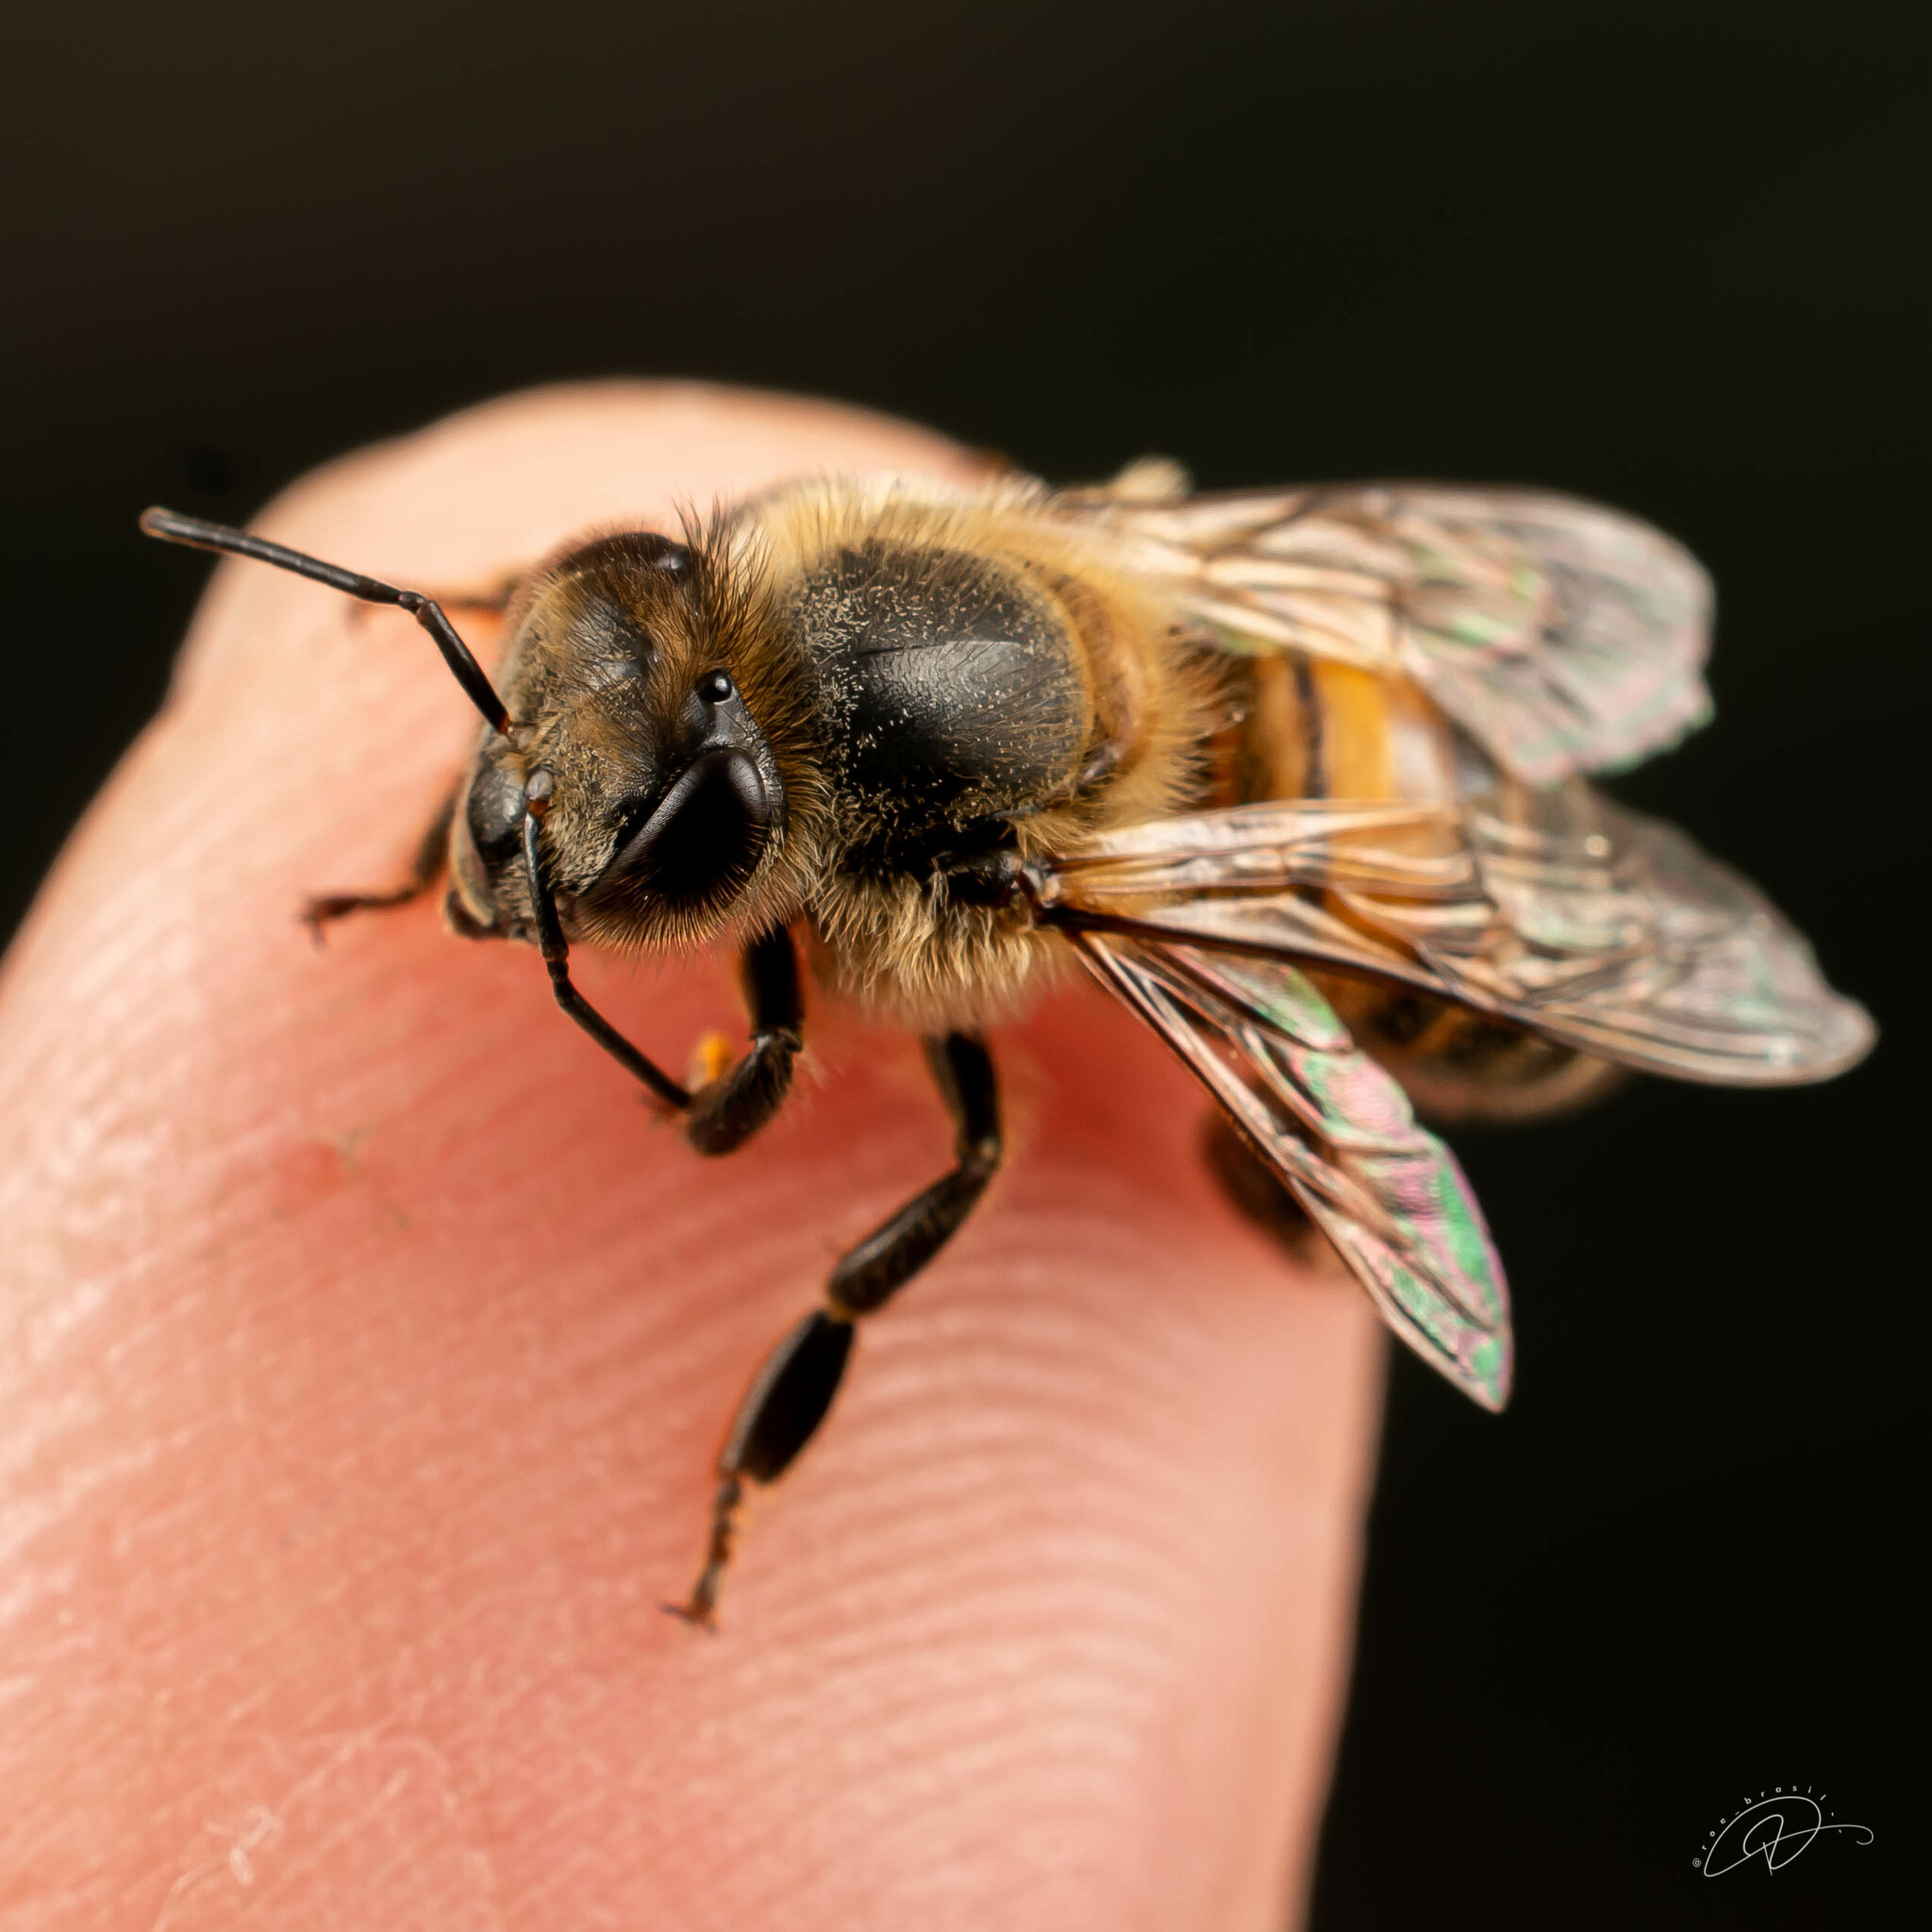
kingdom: Animalia
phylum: Arthropoda
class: Insecta
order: Hymenoptera
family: Apidae
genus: Apis
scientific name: Apis mellifera
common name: Honey bee
